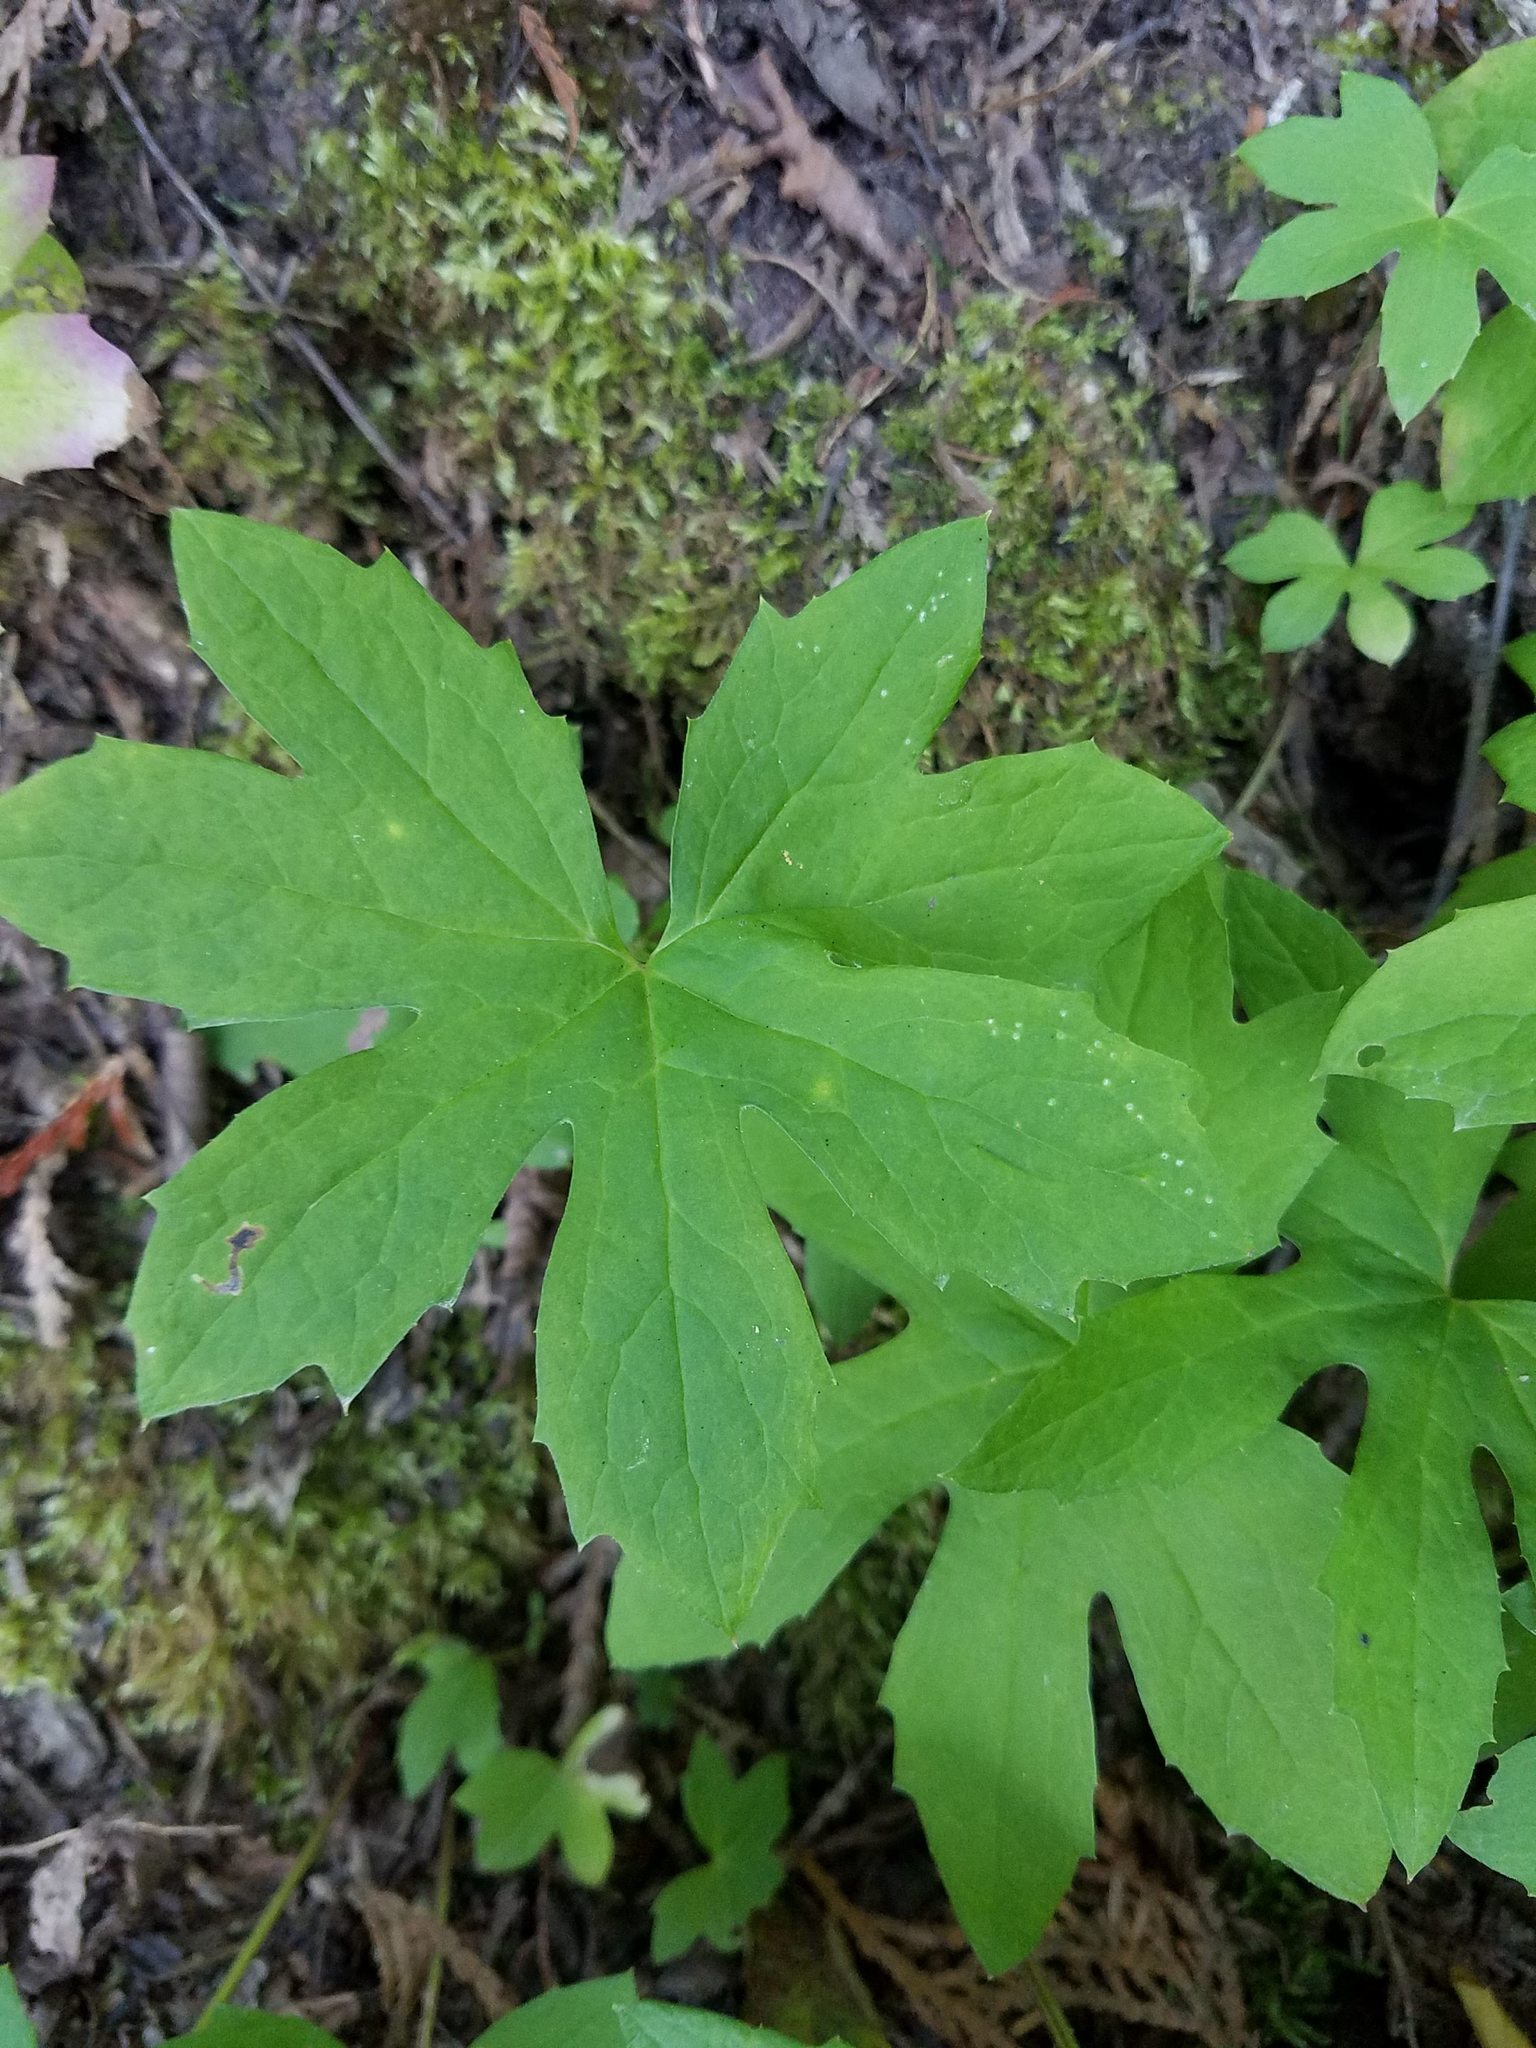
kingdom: Plantae
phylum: Tracheophyta
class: Magnoliopsida
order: Asterales
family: Asteraceae
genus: Petasites
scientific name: Petasites frigidus
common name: Arctic butterbur
